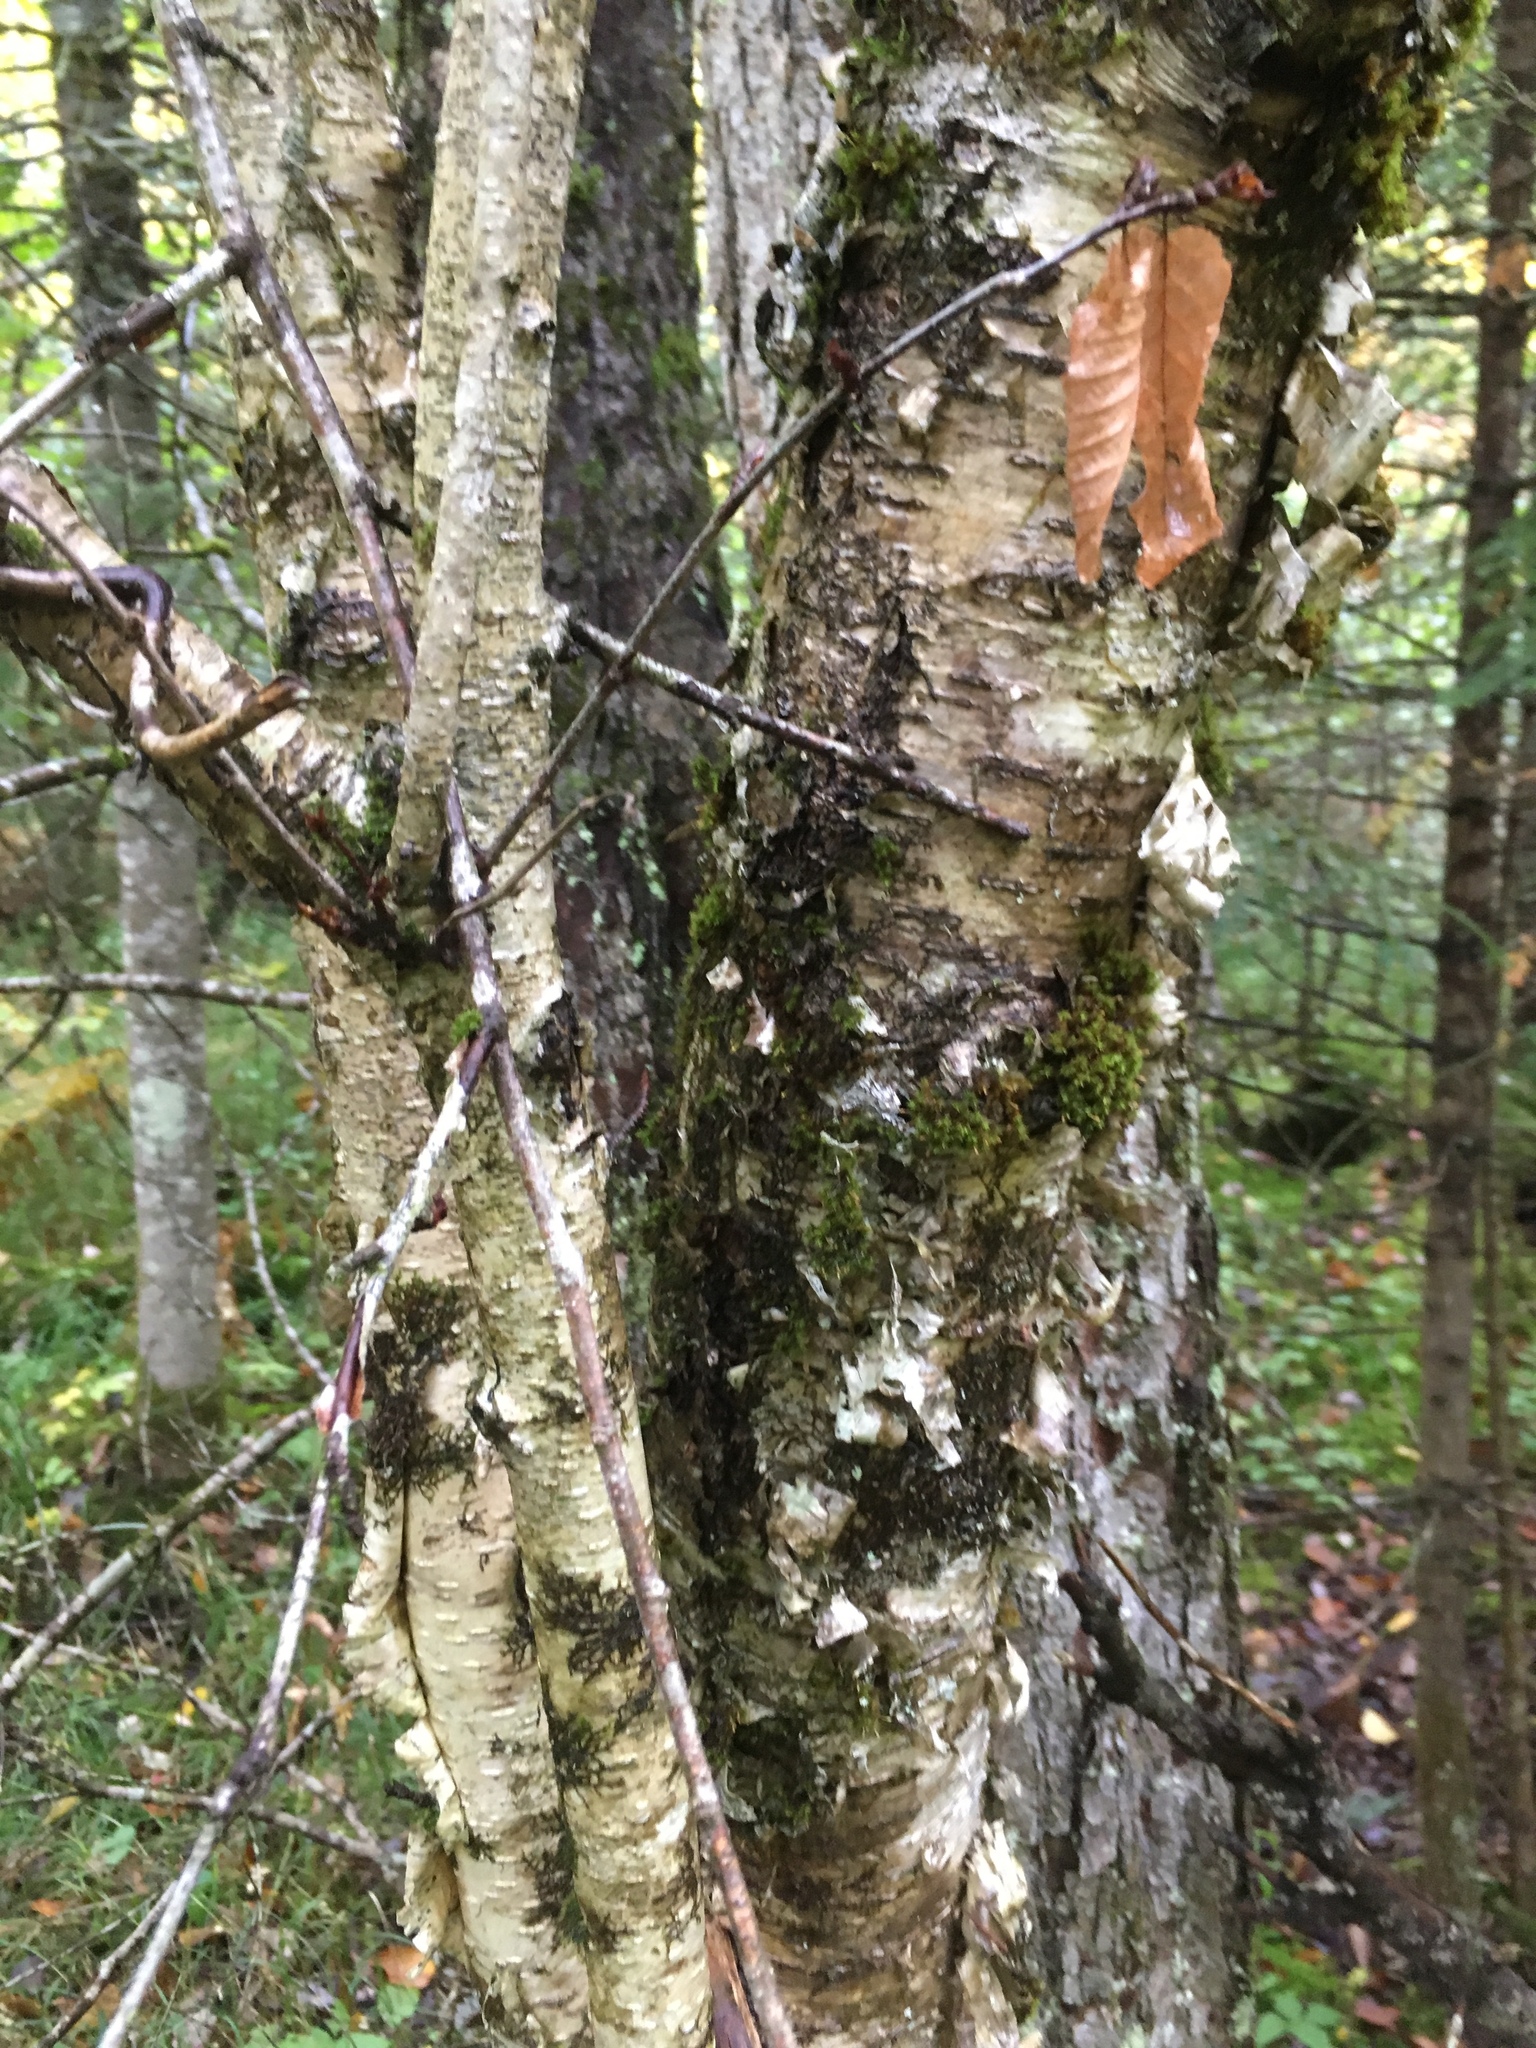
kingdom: Plantae
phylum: Tracheophyta
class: Magnoliopsida
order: Fagales
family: Betulaceae
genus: Betula
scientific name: Betula alleghaniensis
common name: Yellow birch
